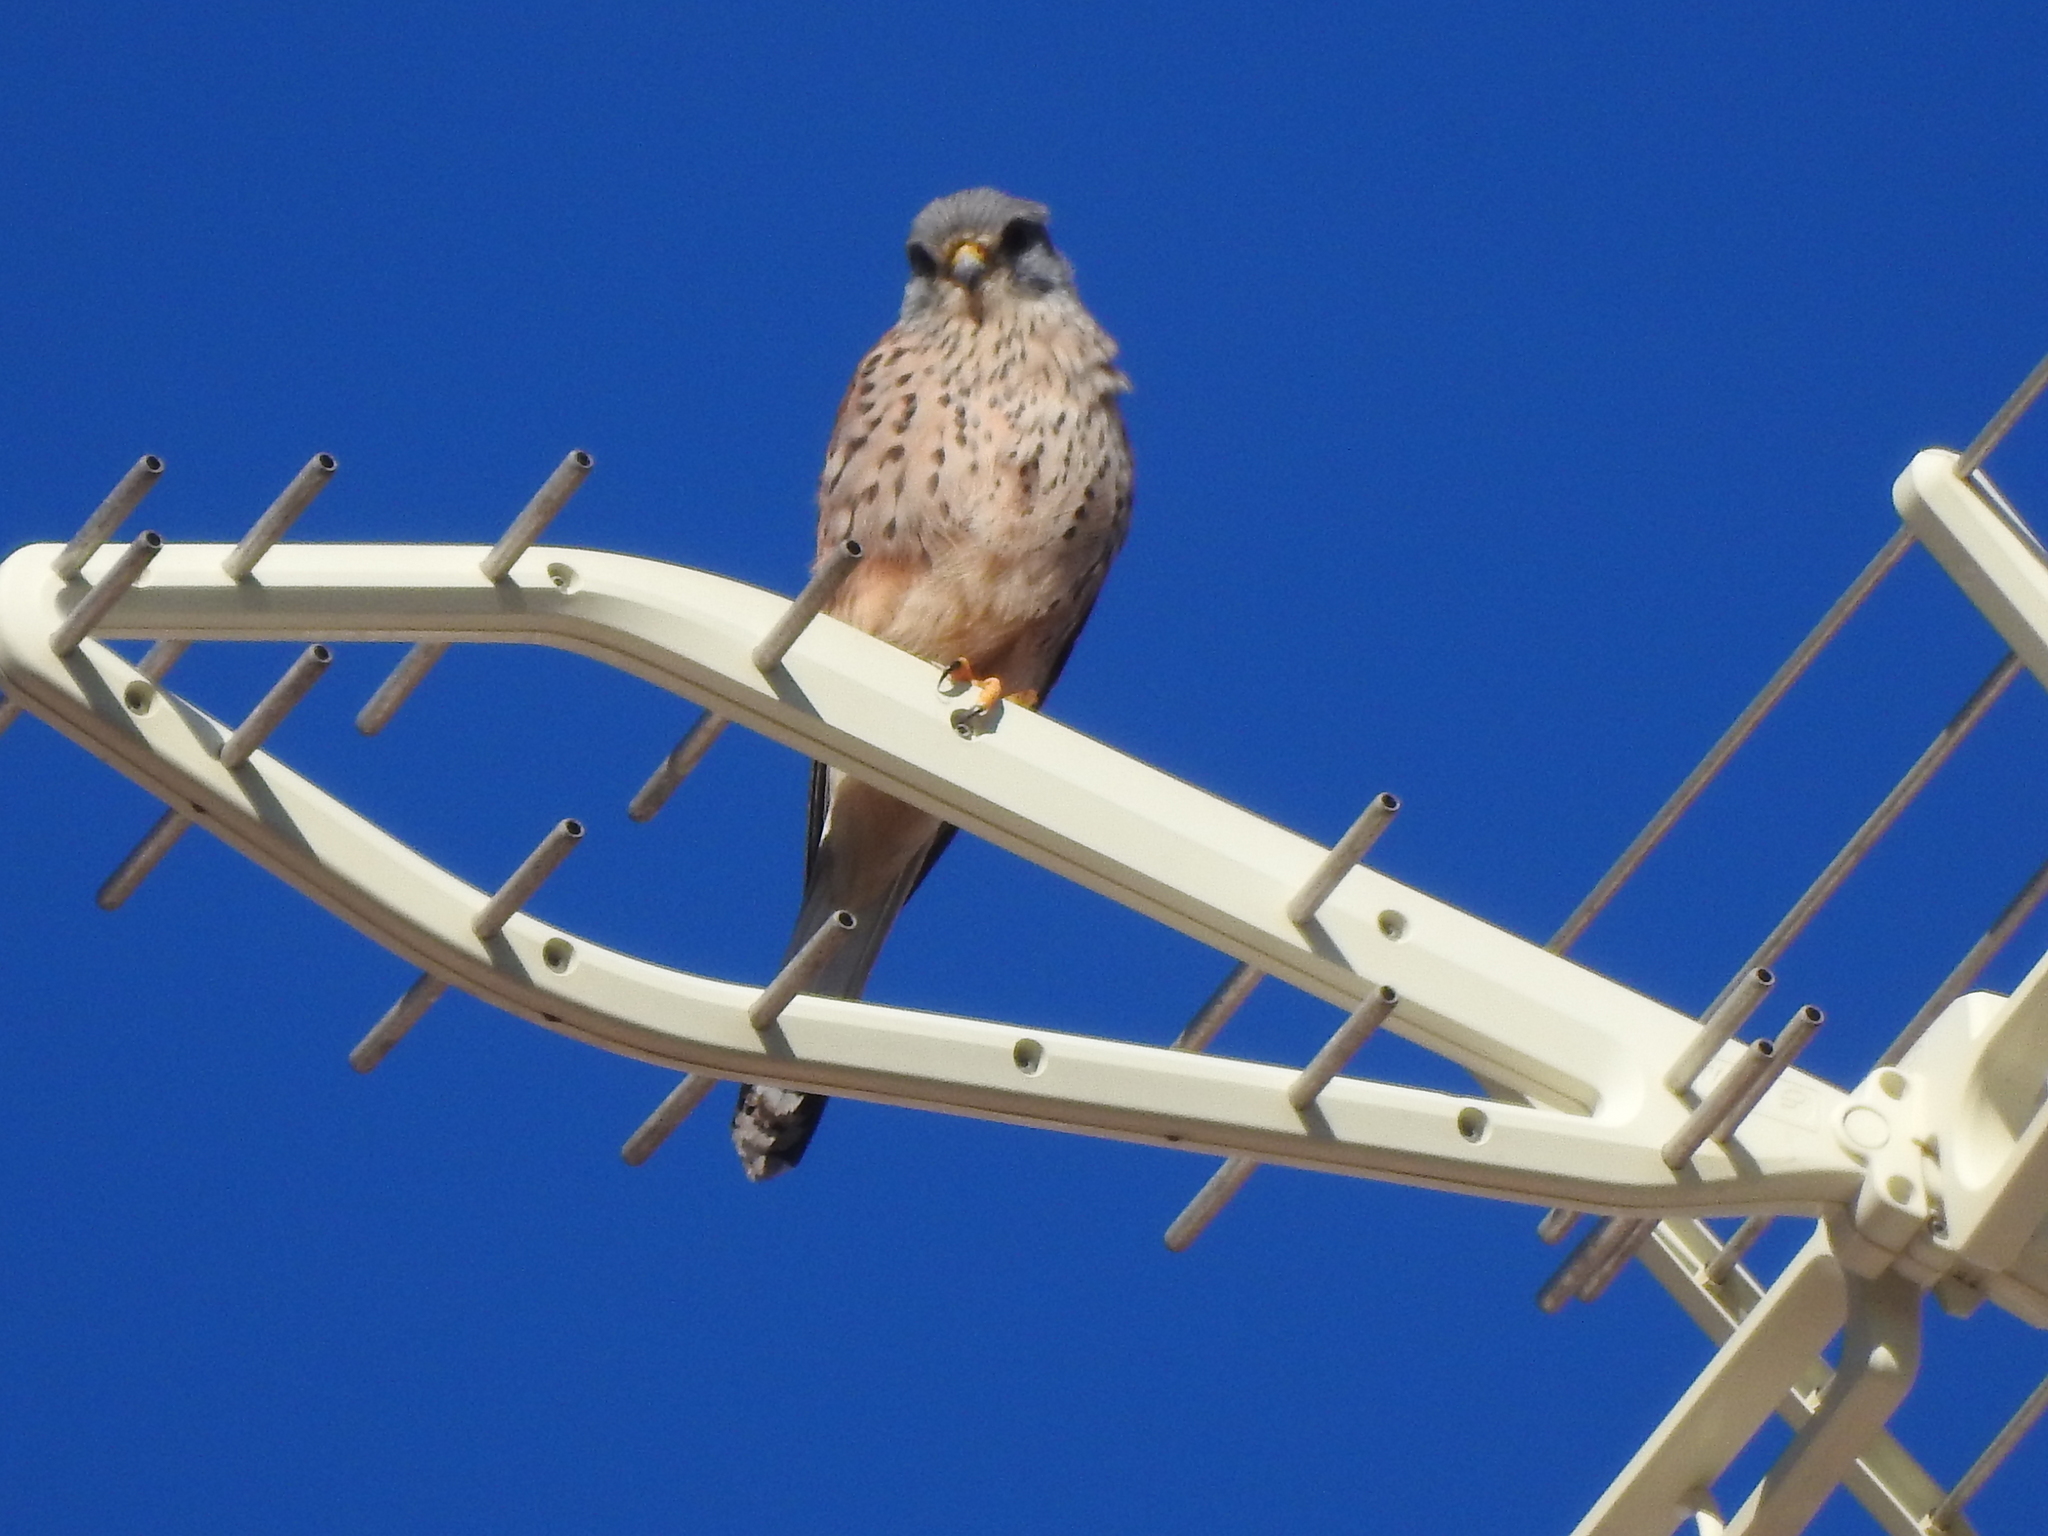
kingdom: Animalia
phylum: Chordata
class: Aves
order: Falconiformes
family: Falconidae
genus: Falco
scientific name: Falco tinnunculus
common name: Common kestrel
